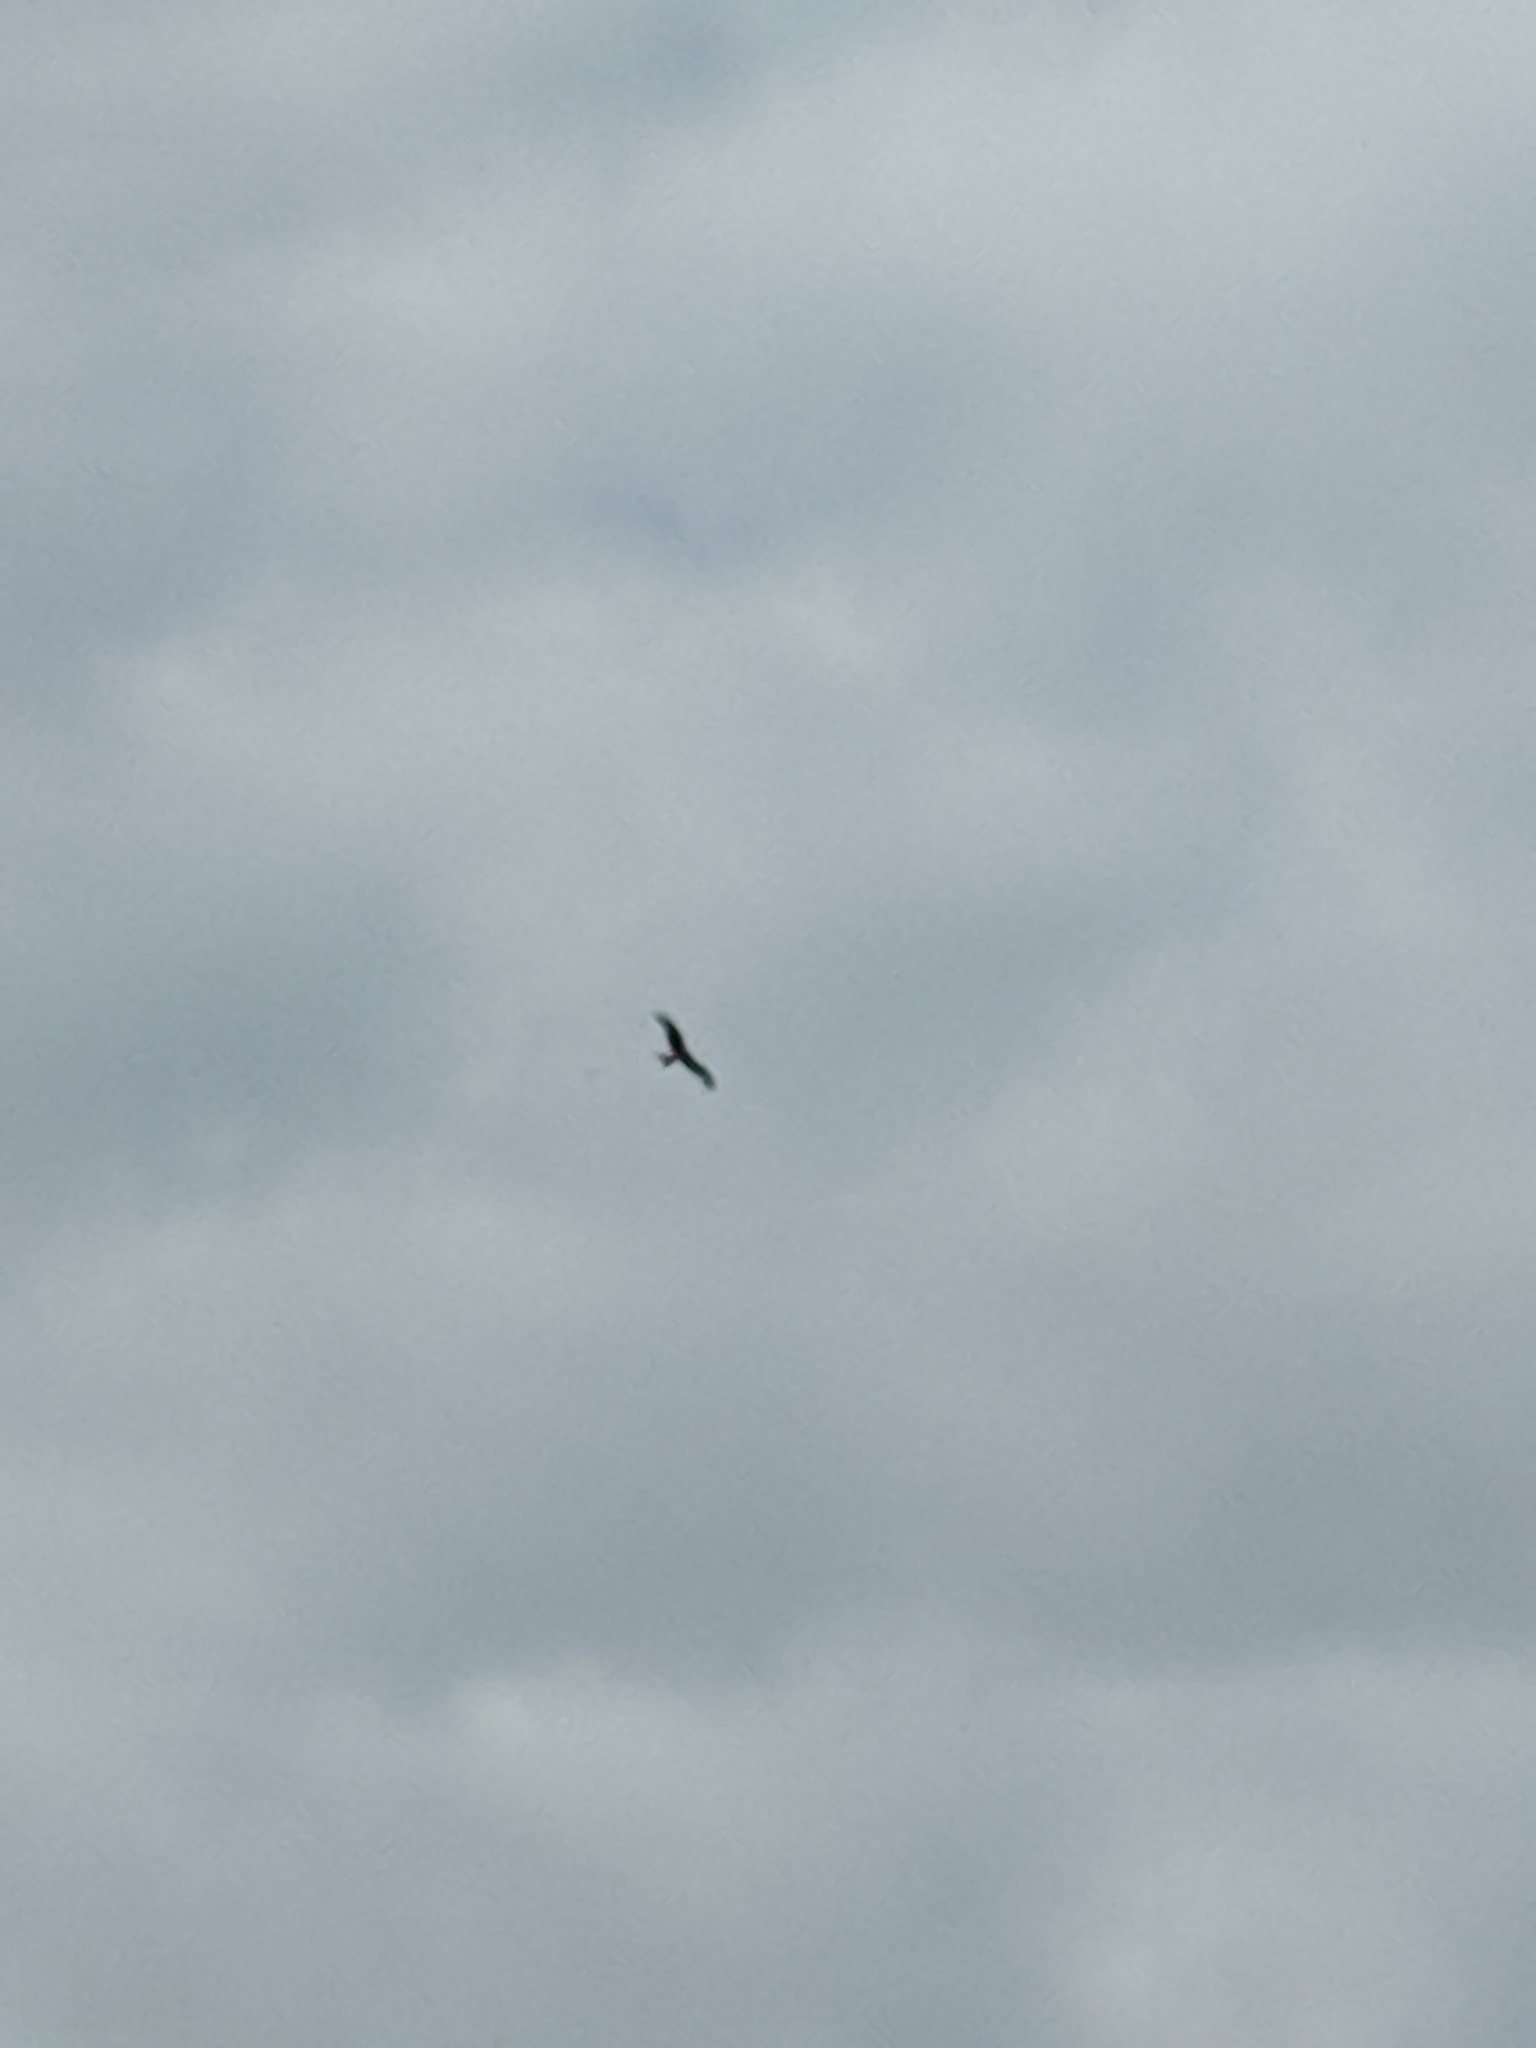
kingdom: Animalia
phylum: Chordata
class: Aves
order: Accipitriformes
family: Accipitridae
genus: Milvus
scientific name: Milvus milvus
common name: Red kite
